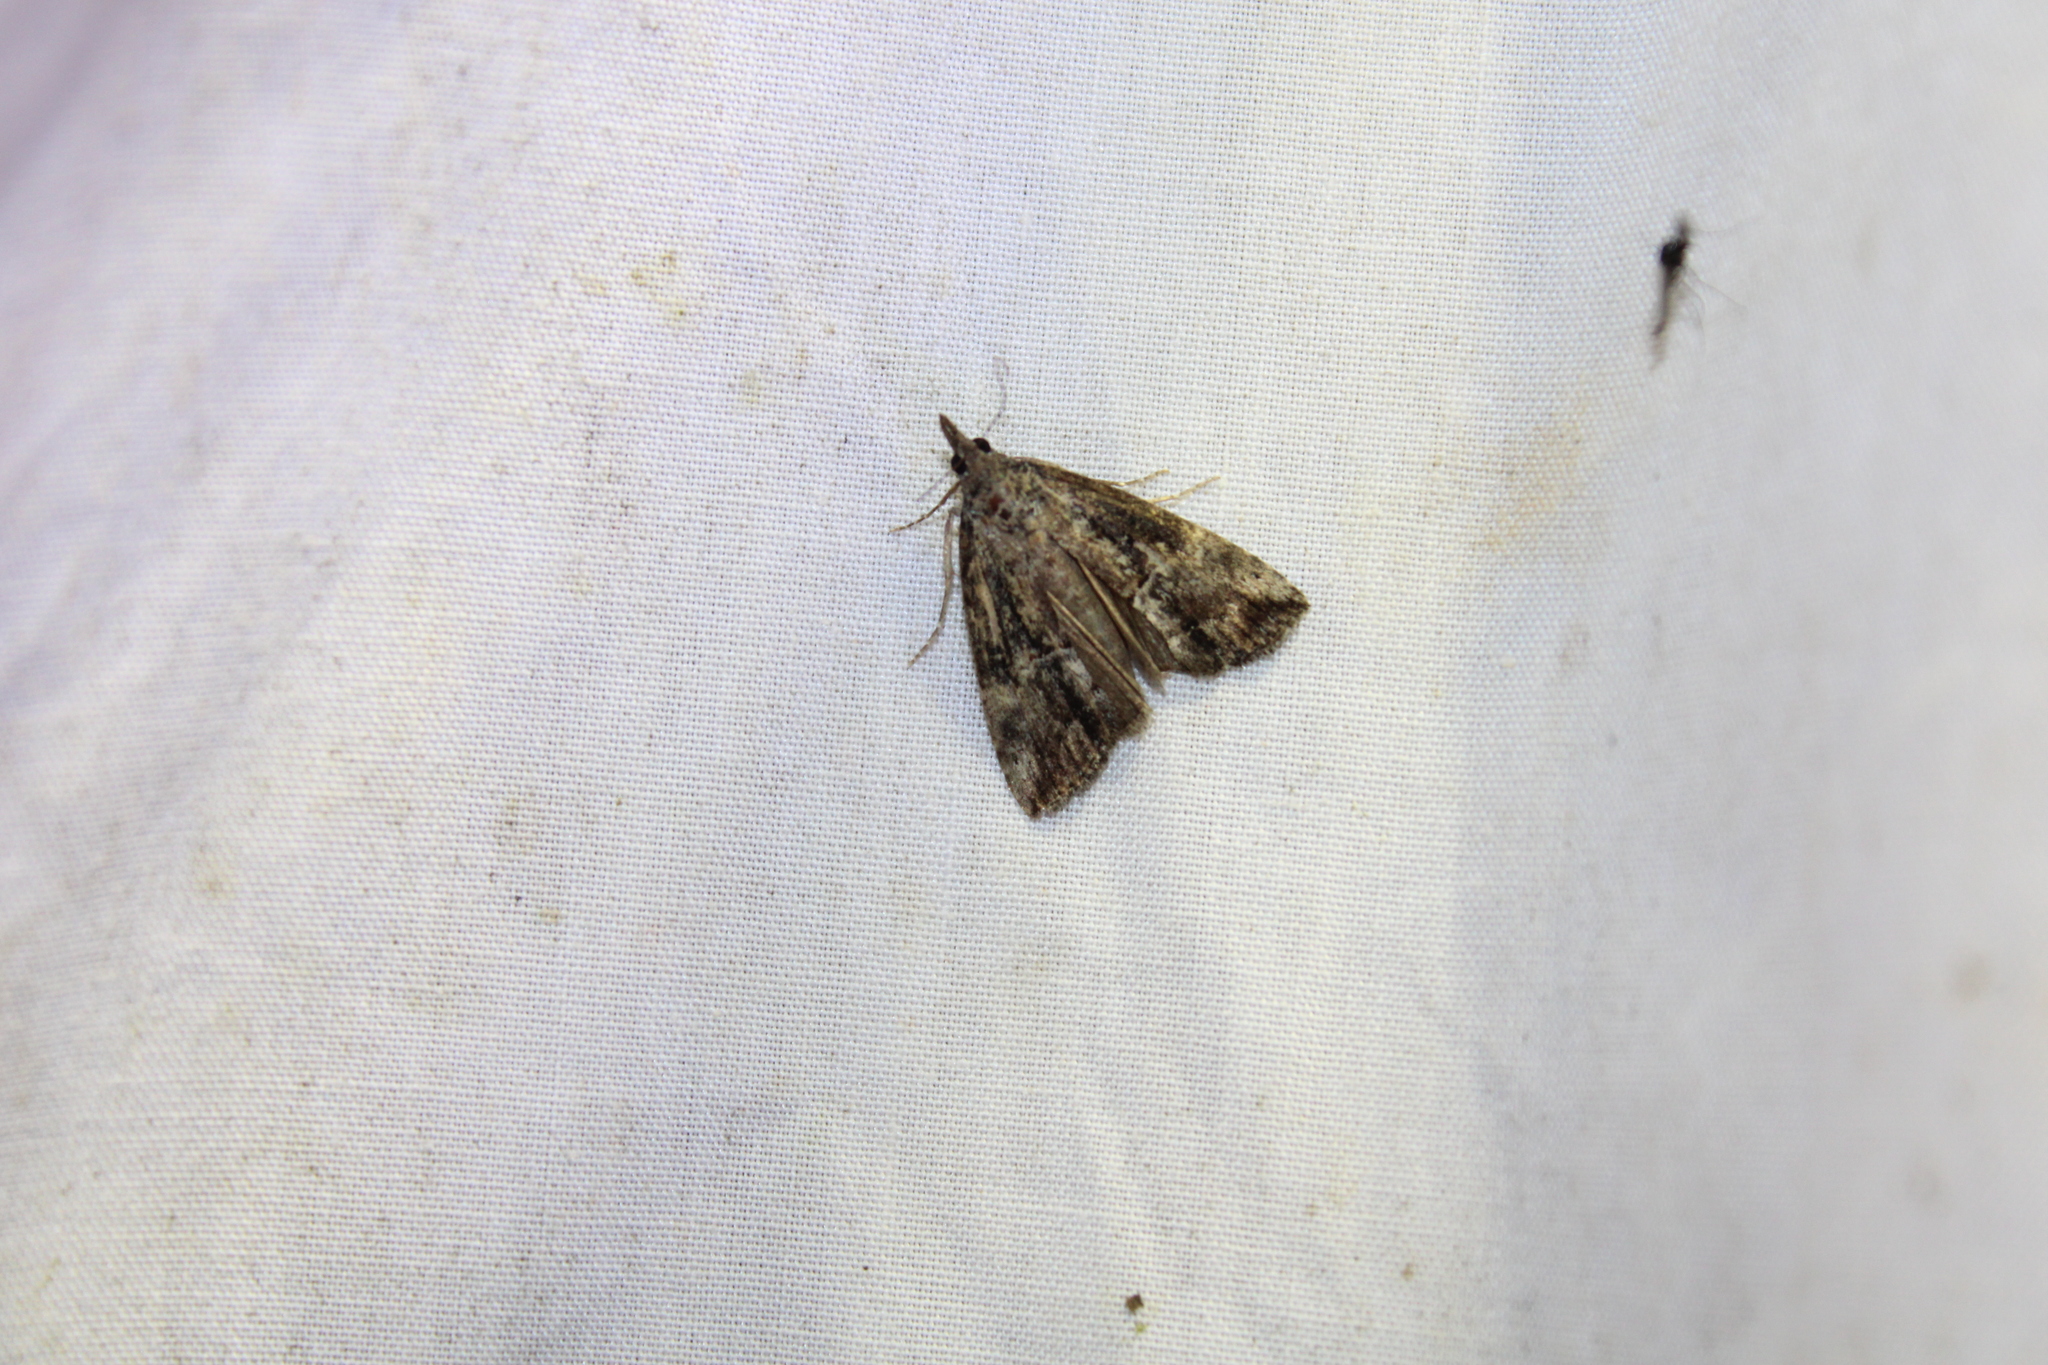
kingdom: Animalia
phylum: Arthropoda
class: Insecta
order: Lepidoptera
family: Erebidae
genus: Hypena
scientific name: Hypena scabra
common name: Green cloverworm
